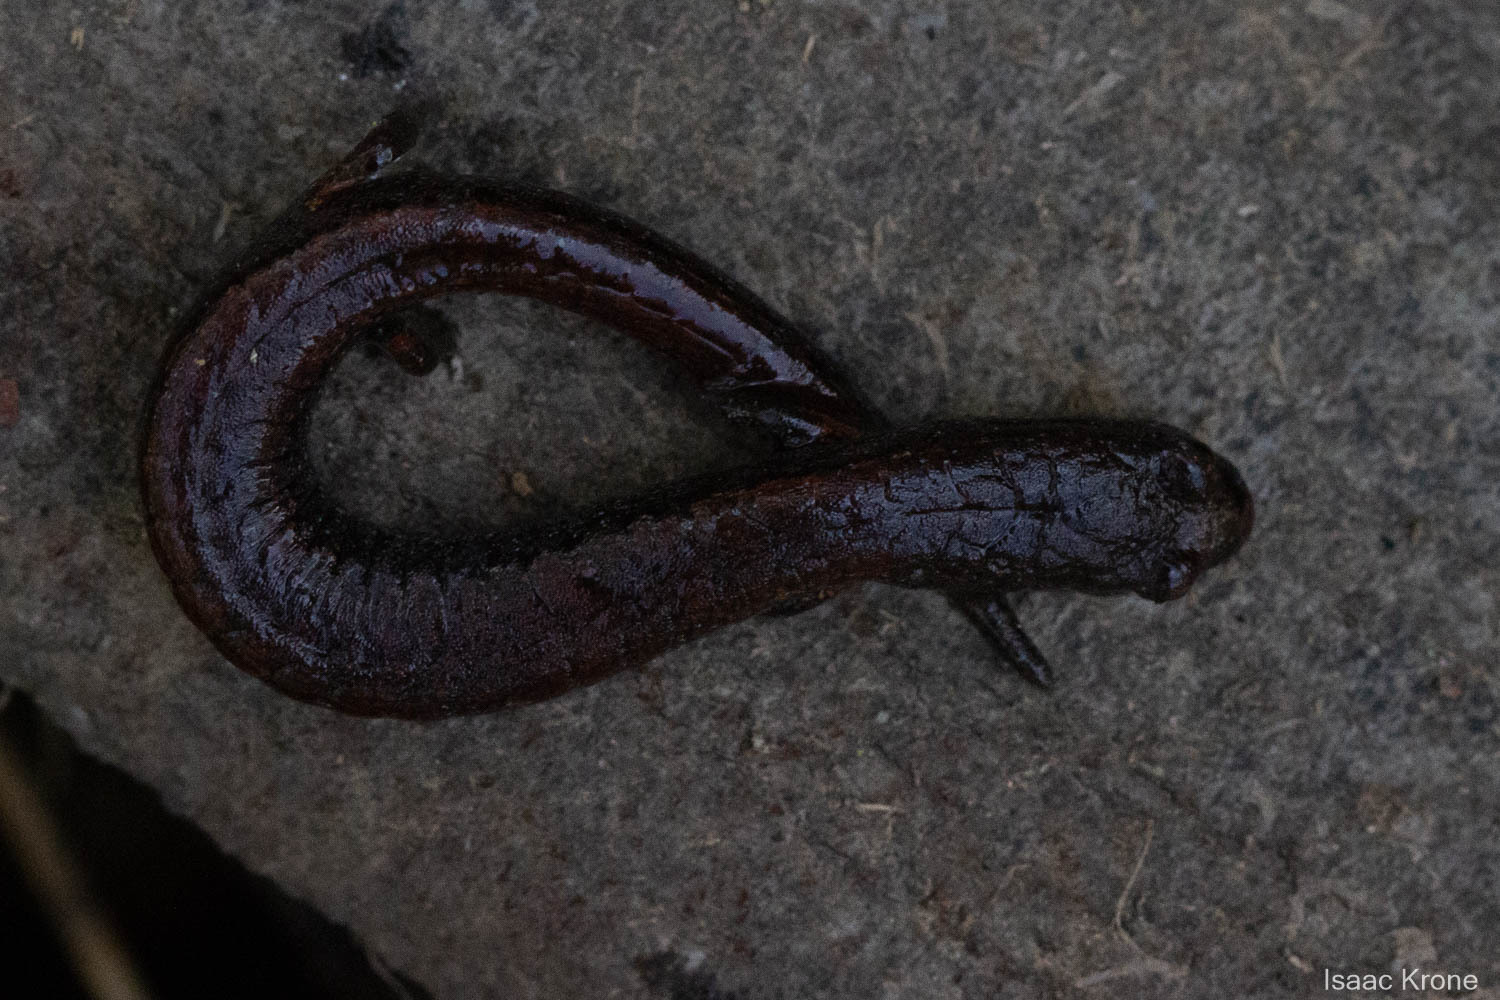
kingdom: Animalia
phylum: Chordata
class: Amphibia
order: Caudata
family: Plethodontidae
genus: Batrachoseps
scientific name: Batrachoseps attenuatus
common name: California slender salamander
